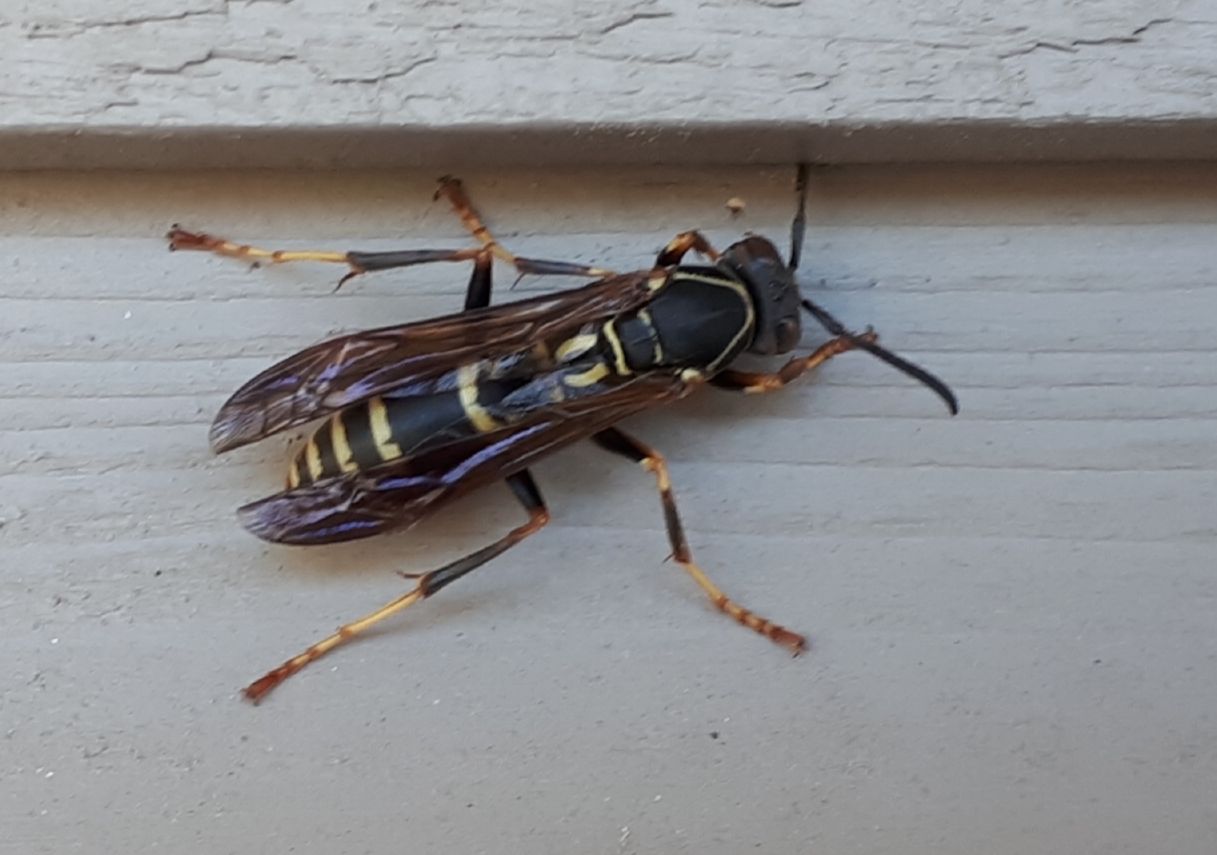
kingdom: Animalia
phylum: Arthropoda
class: Insecta
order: Hymenoptera
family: Eumenidae
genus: Polistes
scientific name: Polistes fuscatus
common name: Dark paper wasp
